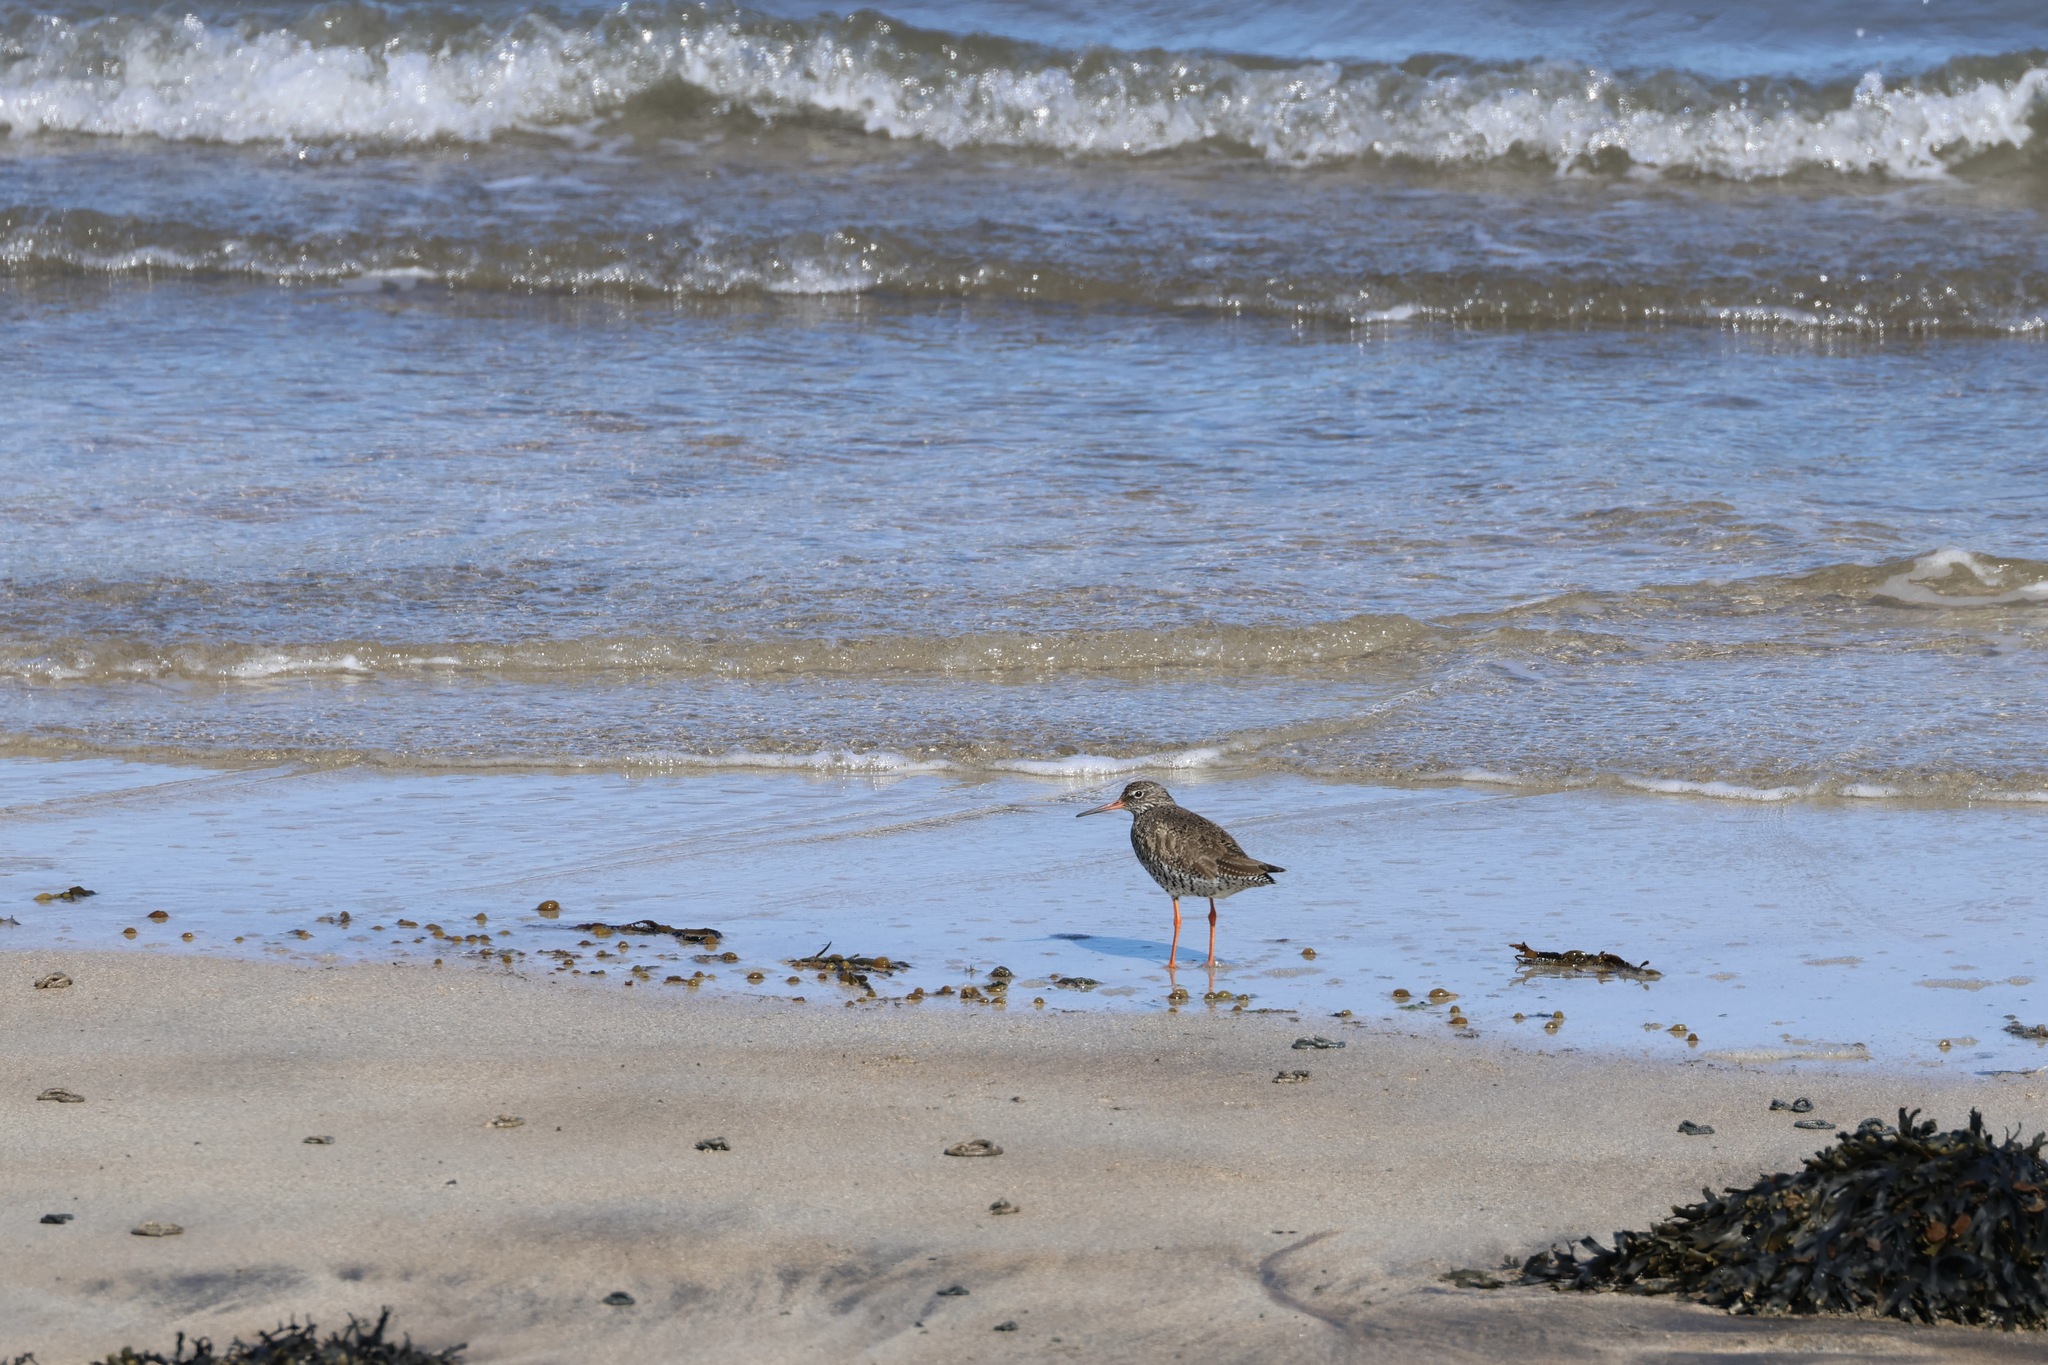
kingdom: Animalia
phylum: Chordata
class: Aves
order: Charadriiformes
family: Scolopacidae
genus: Tringa
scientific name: Tringa totanus
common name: Common redshank
